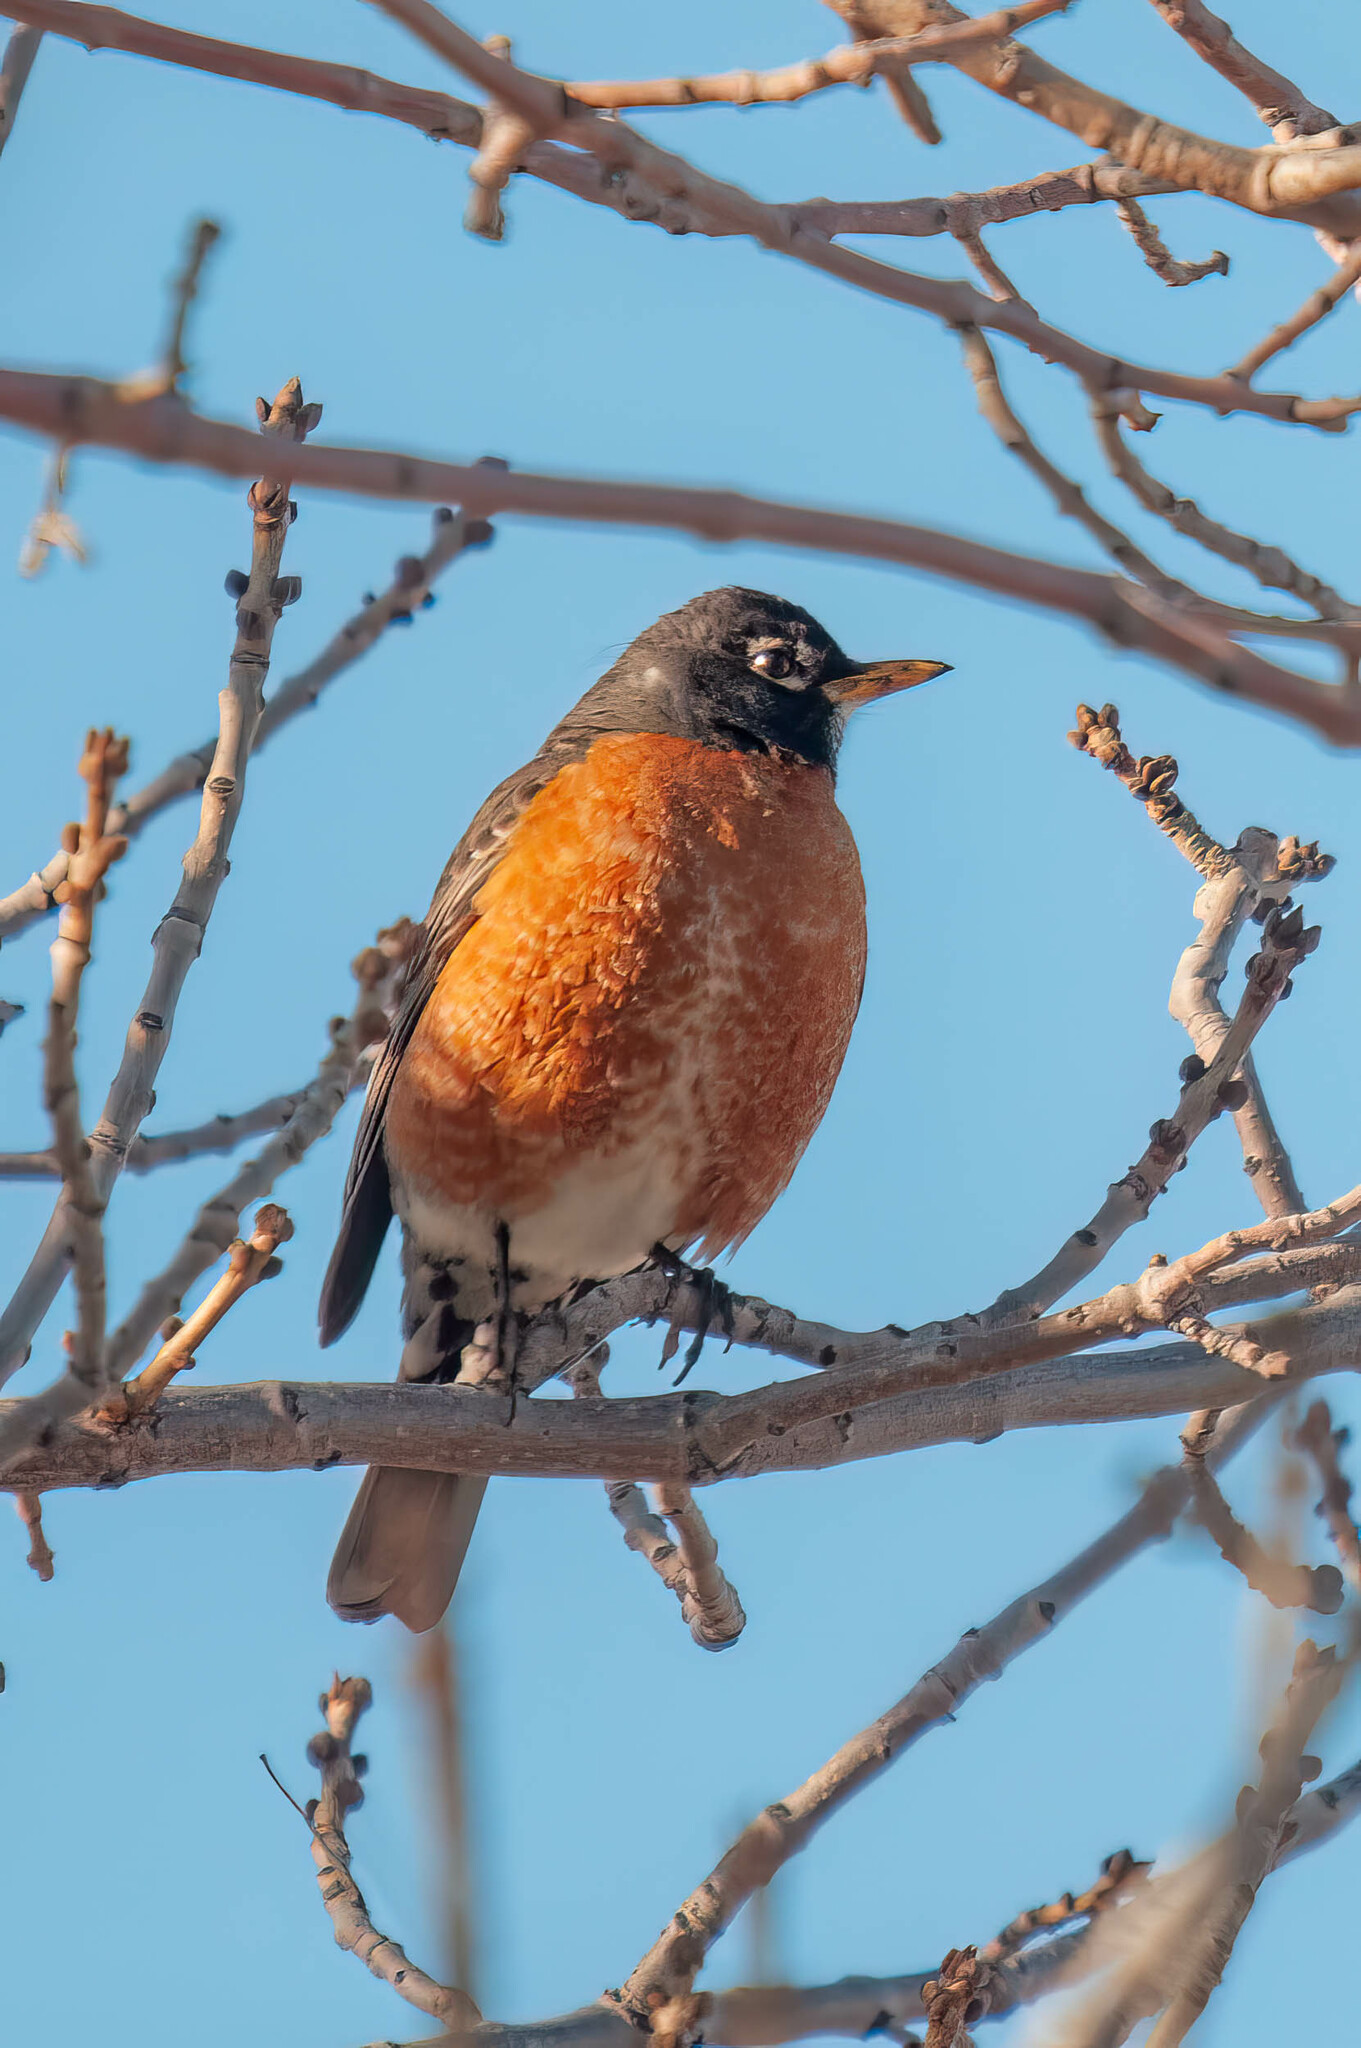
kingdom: Animalia
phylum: Chordata
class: Aves
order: Passeriformes
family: Turdidae
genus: Turdus
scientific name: Turdus migratorius
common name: American robin
